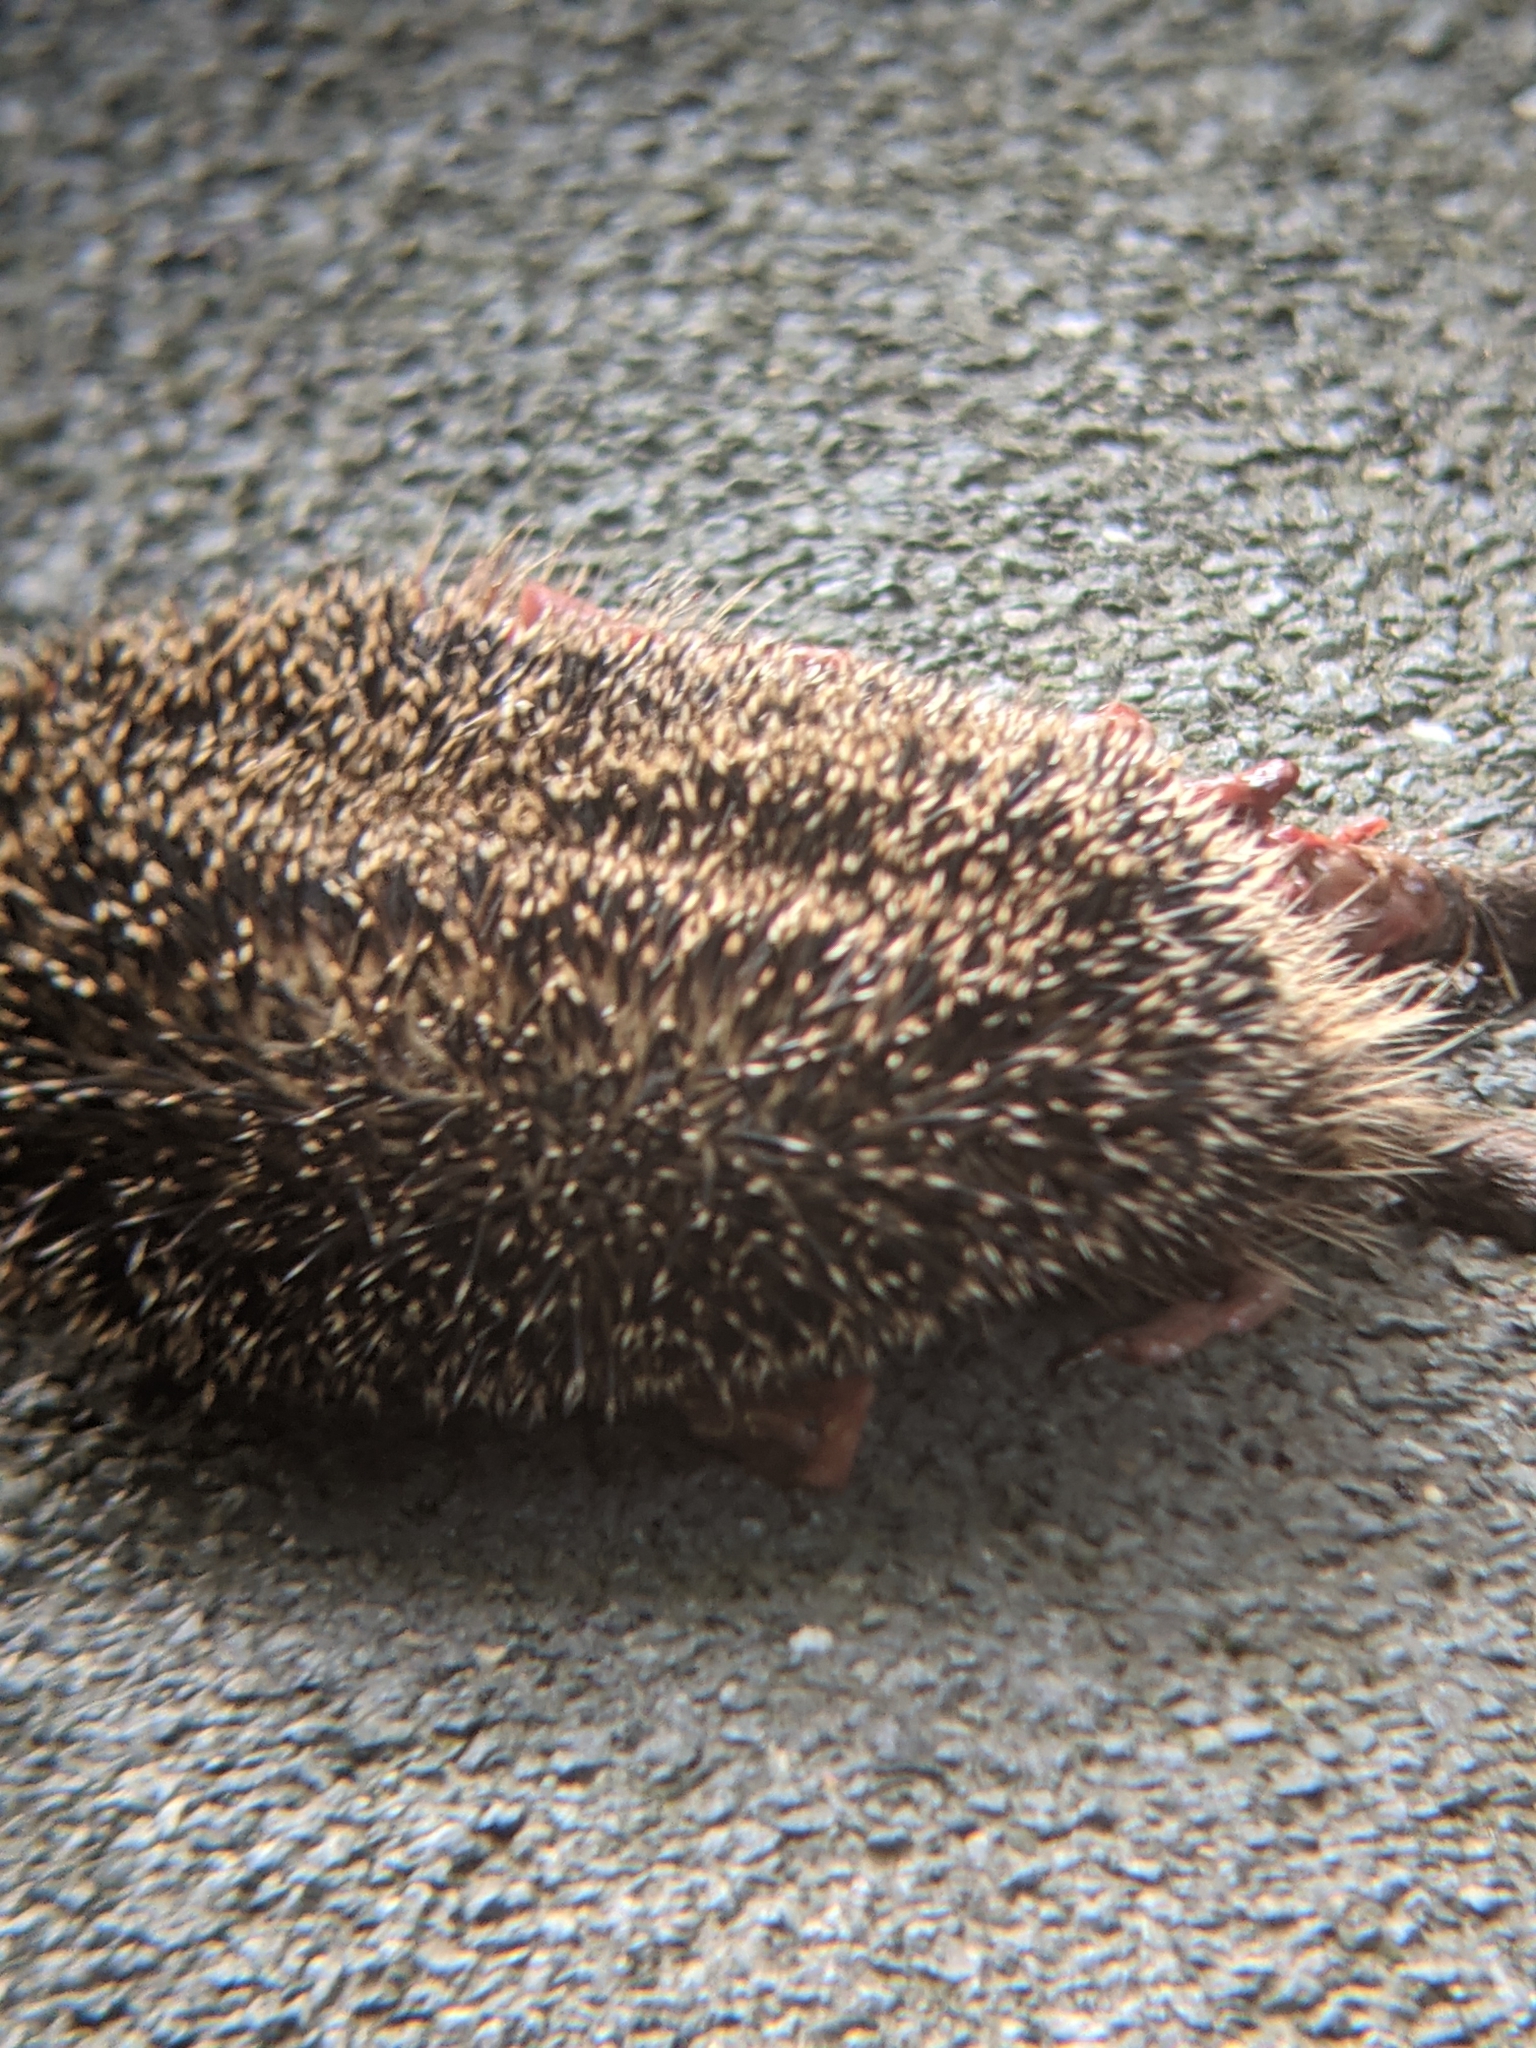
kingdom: Animalia
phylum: Chordata
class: Mammalia
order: Erinaceomorpha
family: Erinaceidae
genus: Erinaceus
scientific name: Erinaceus europaeus
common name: West european hedgehog
